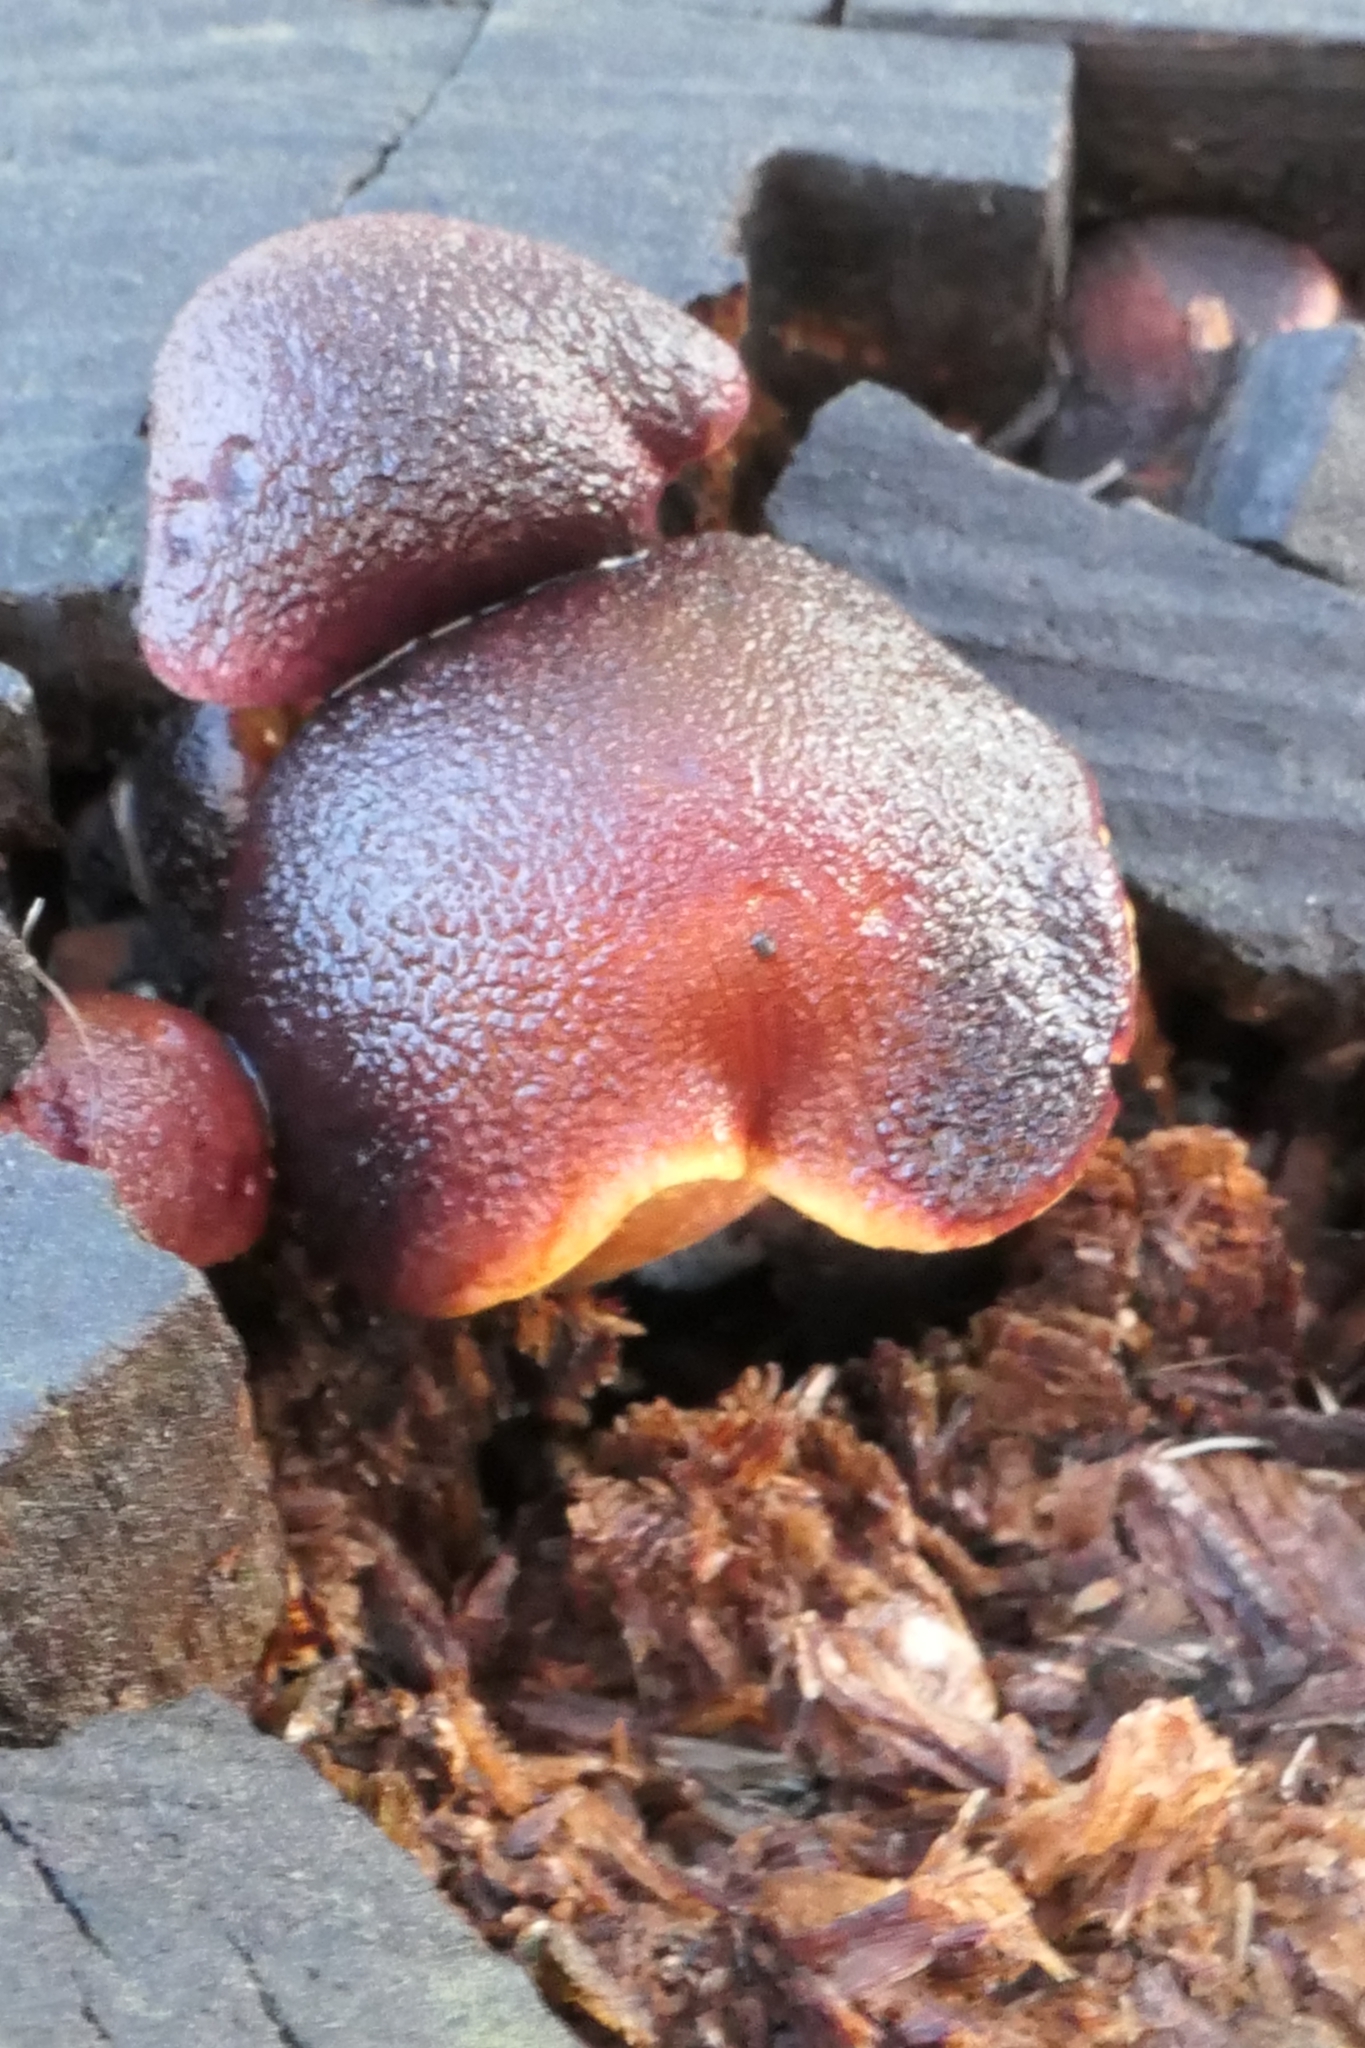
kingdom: Fungi
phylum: Basidiomycota
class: Agaricomycetes
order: Agaricales
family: Hymenogastraceae
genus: Gymnopilus
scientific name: Gymnopilus purpuratus
